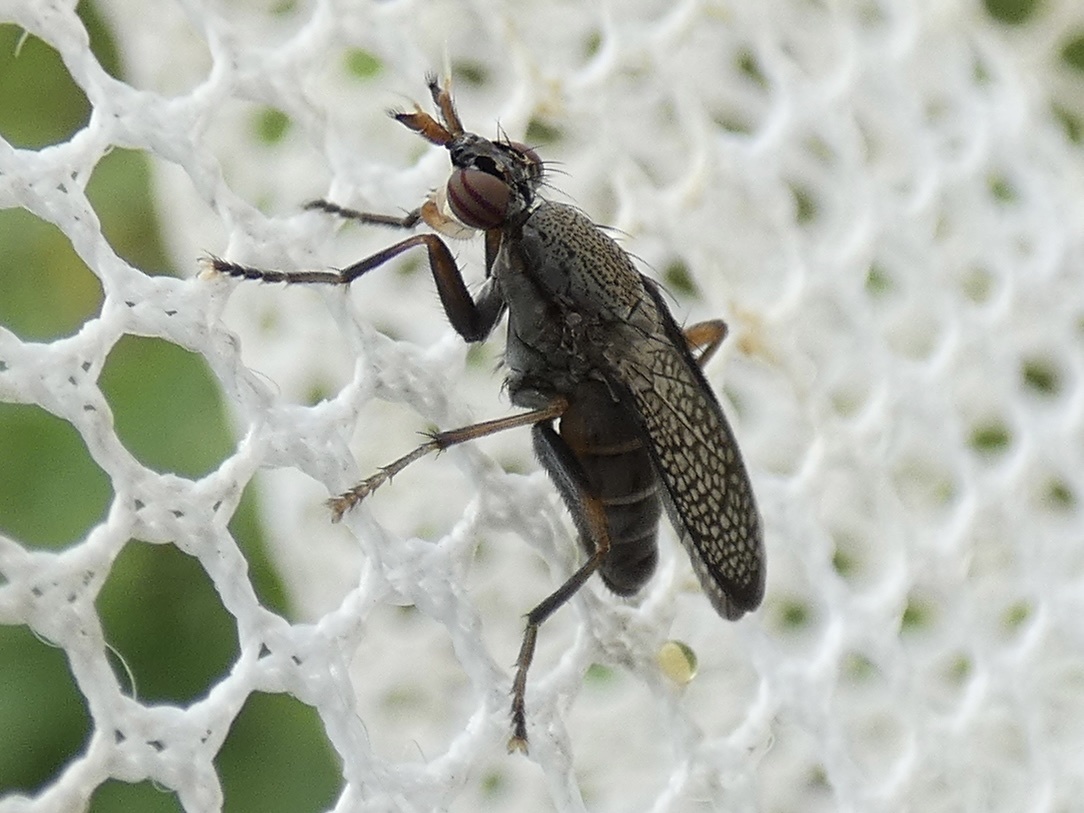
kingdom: Animalia
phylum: Arthropoda
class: Insecta
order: Diptera
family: Sciomyzidae
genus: Coremacera
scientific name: Coremacera marginata
